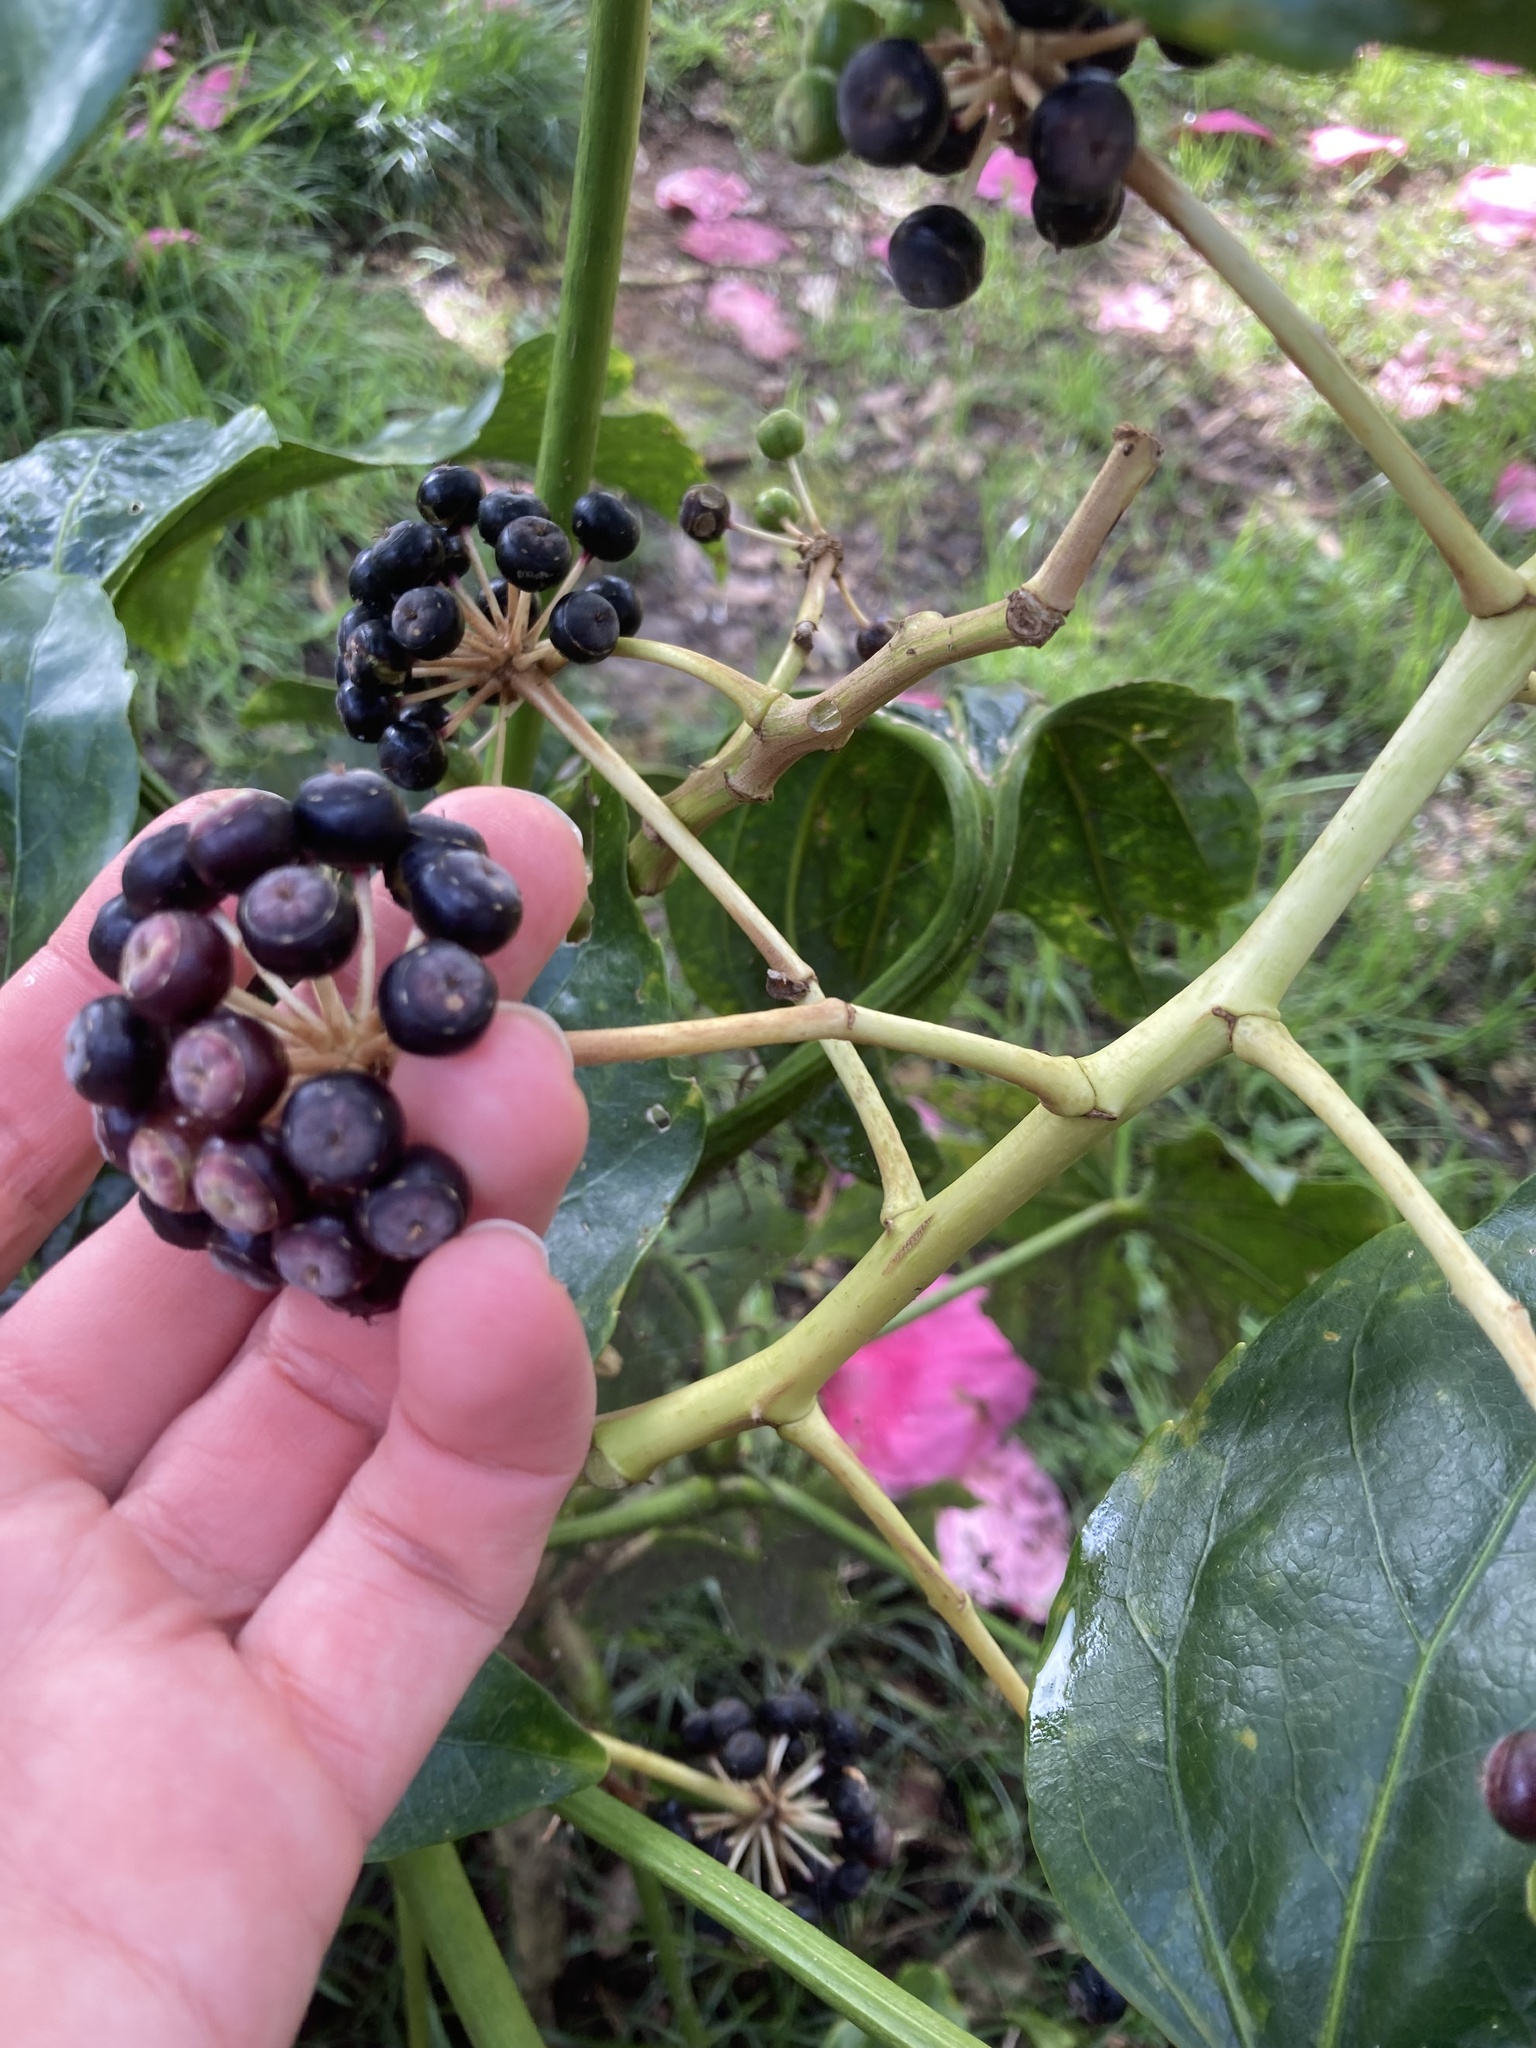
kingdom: Plantae
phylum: Tracheophyta
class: Magnoliopsida
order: Apiales
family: Araliaceae
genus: Fatsia
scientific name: Fatsia japonica
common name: Fatsia
